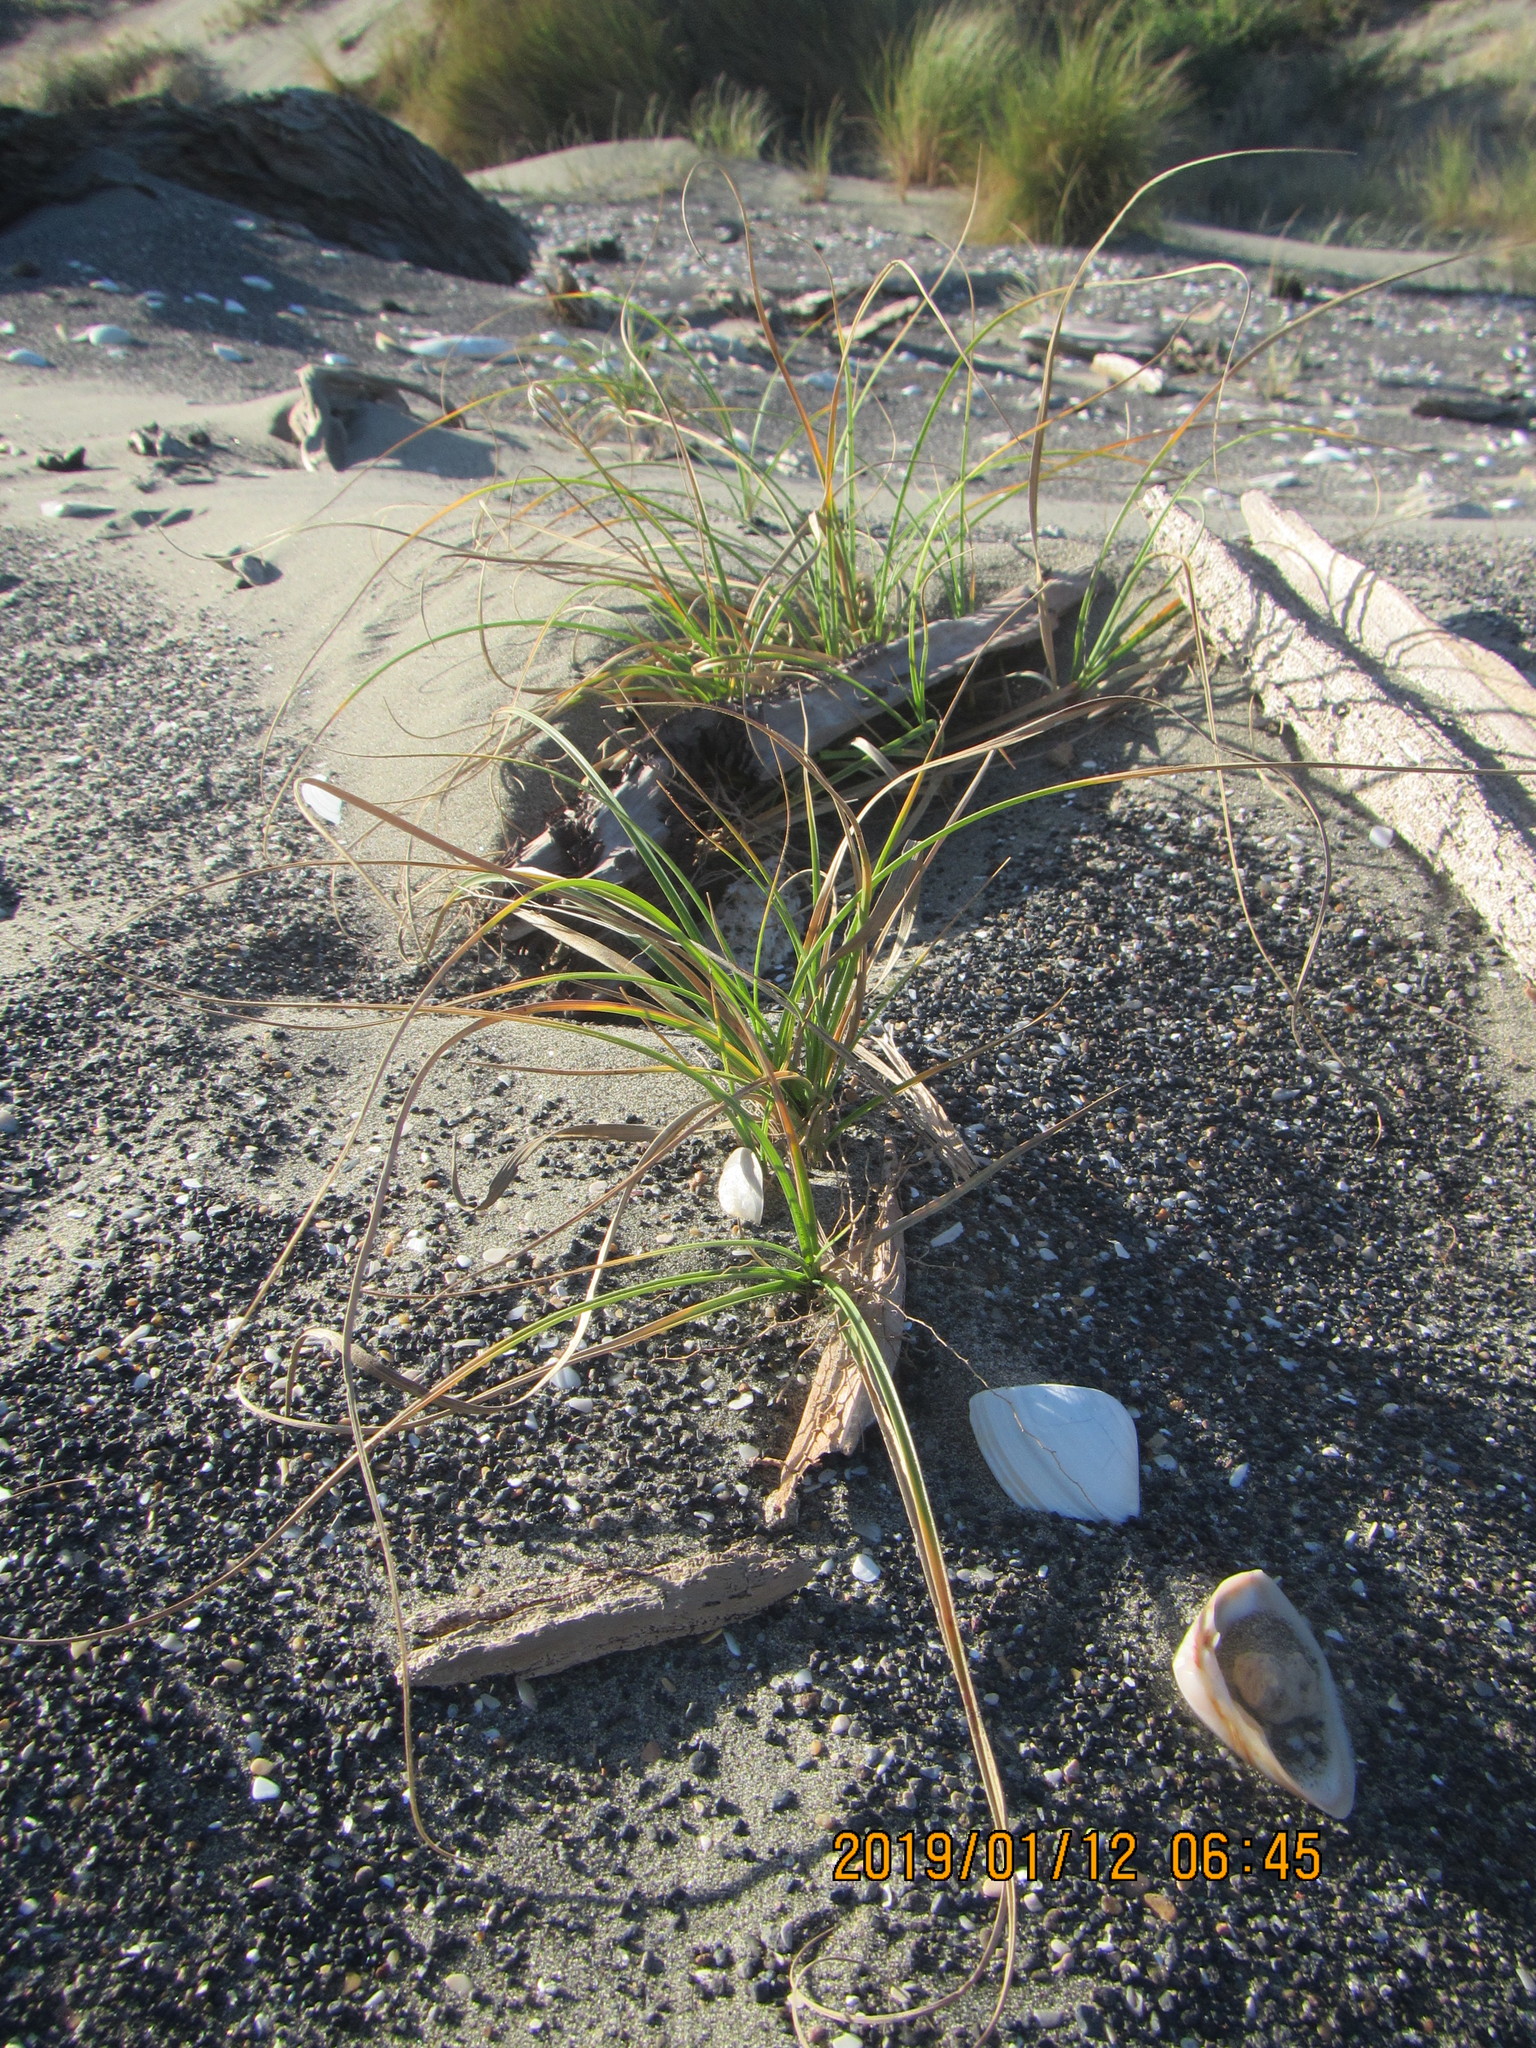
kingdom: Plantae
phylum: Tracheophyta
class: Liliopsida
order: Poales
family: Cyperaceae
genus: Carex
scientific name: Carex pumila
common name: Dwarf sedge
